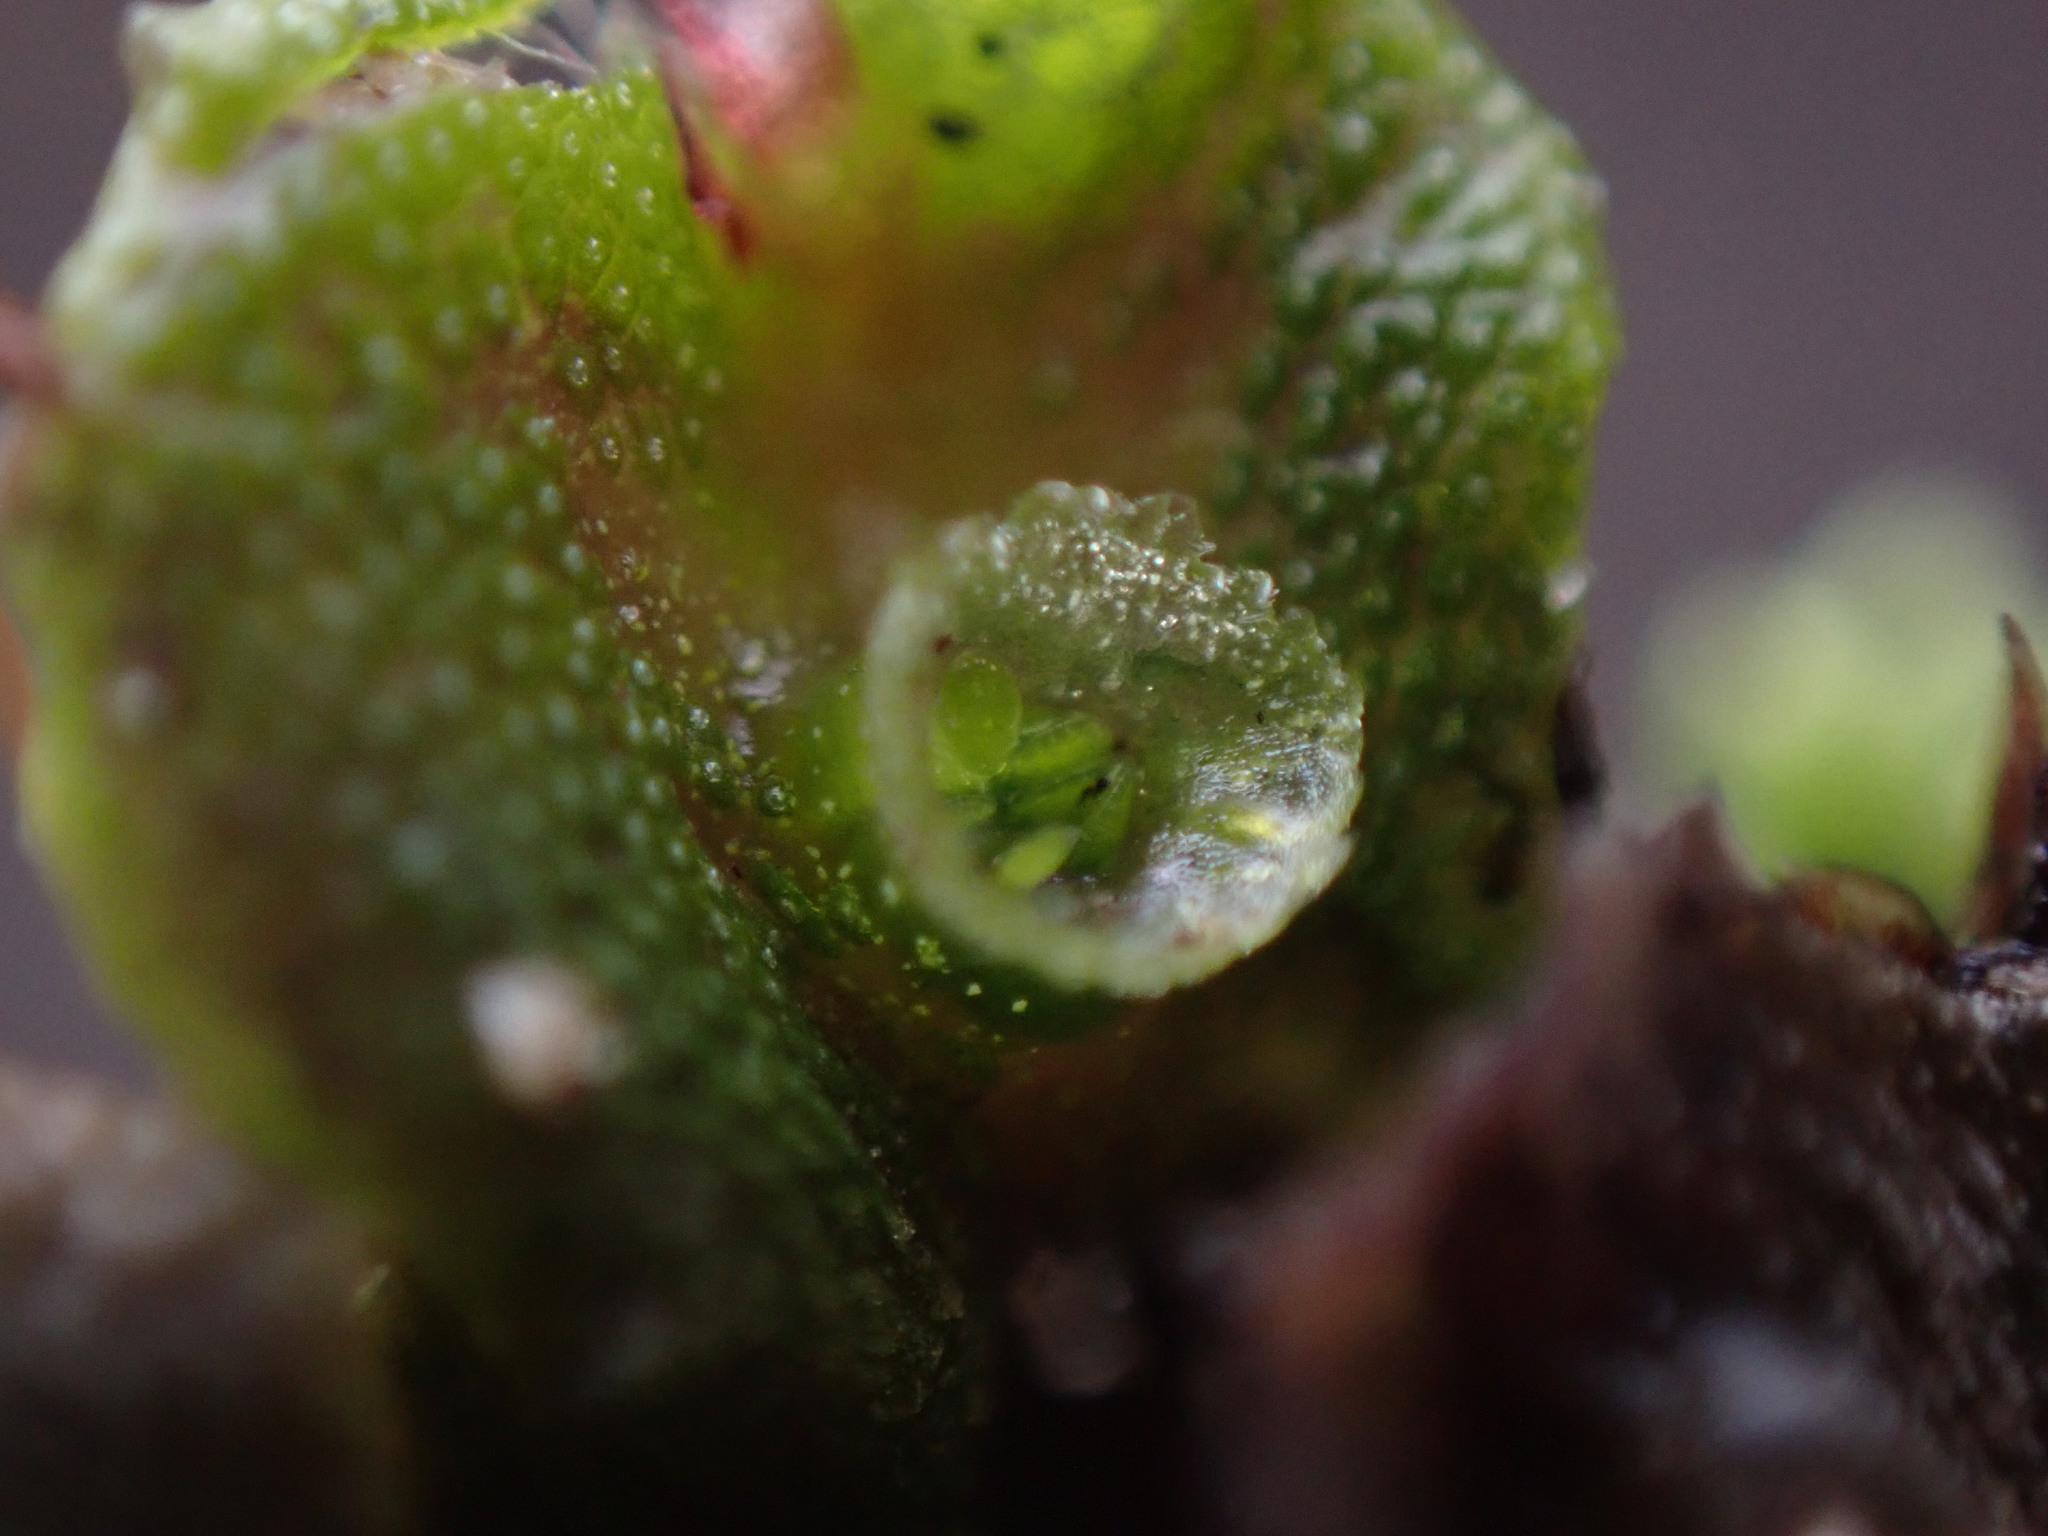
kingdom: Plantae
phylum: Marchantiophyta
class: Marchantiopsida
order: Marchantiales
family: Marchantiaceae
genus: Marchantia
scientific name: Marchantia polymorpha
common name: Common liverwort
